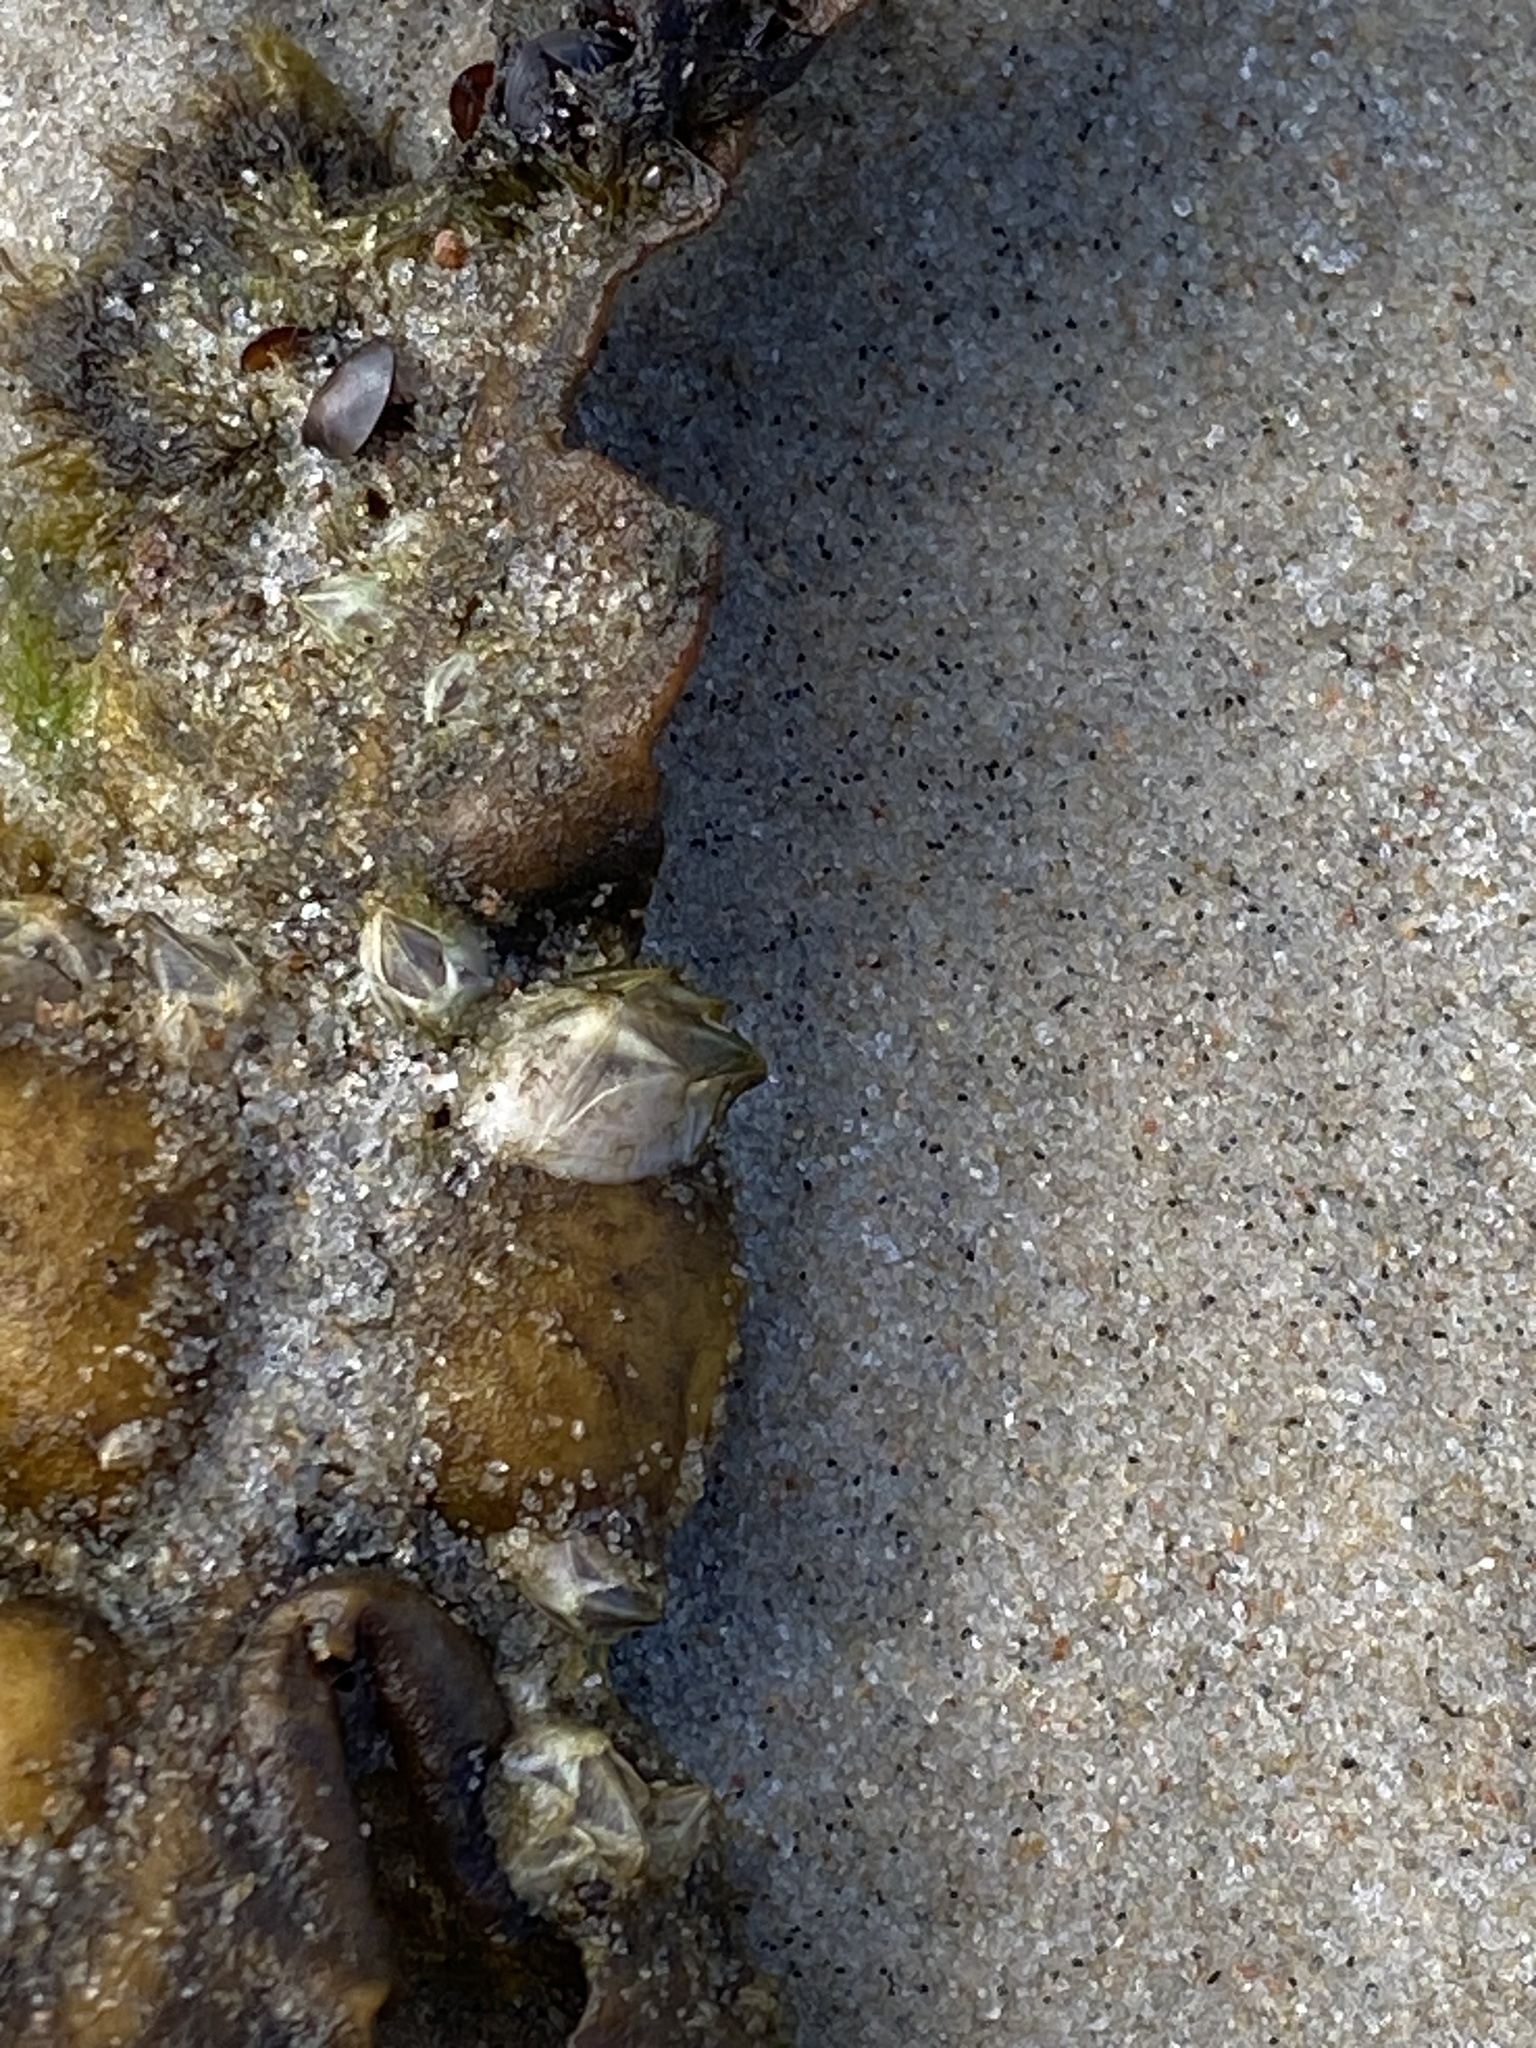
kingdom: Animalia
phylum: Arthropoda
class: Maxillopoda
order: Sessilia
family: Balanidae
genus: Amphibalanus
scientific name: Amphibalanus improvisus
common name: Bay barnacle
